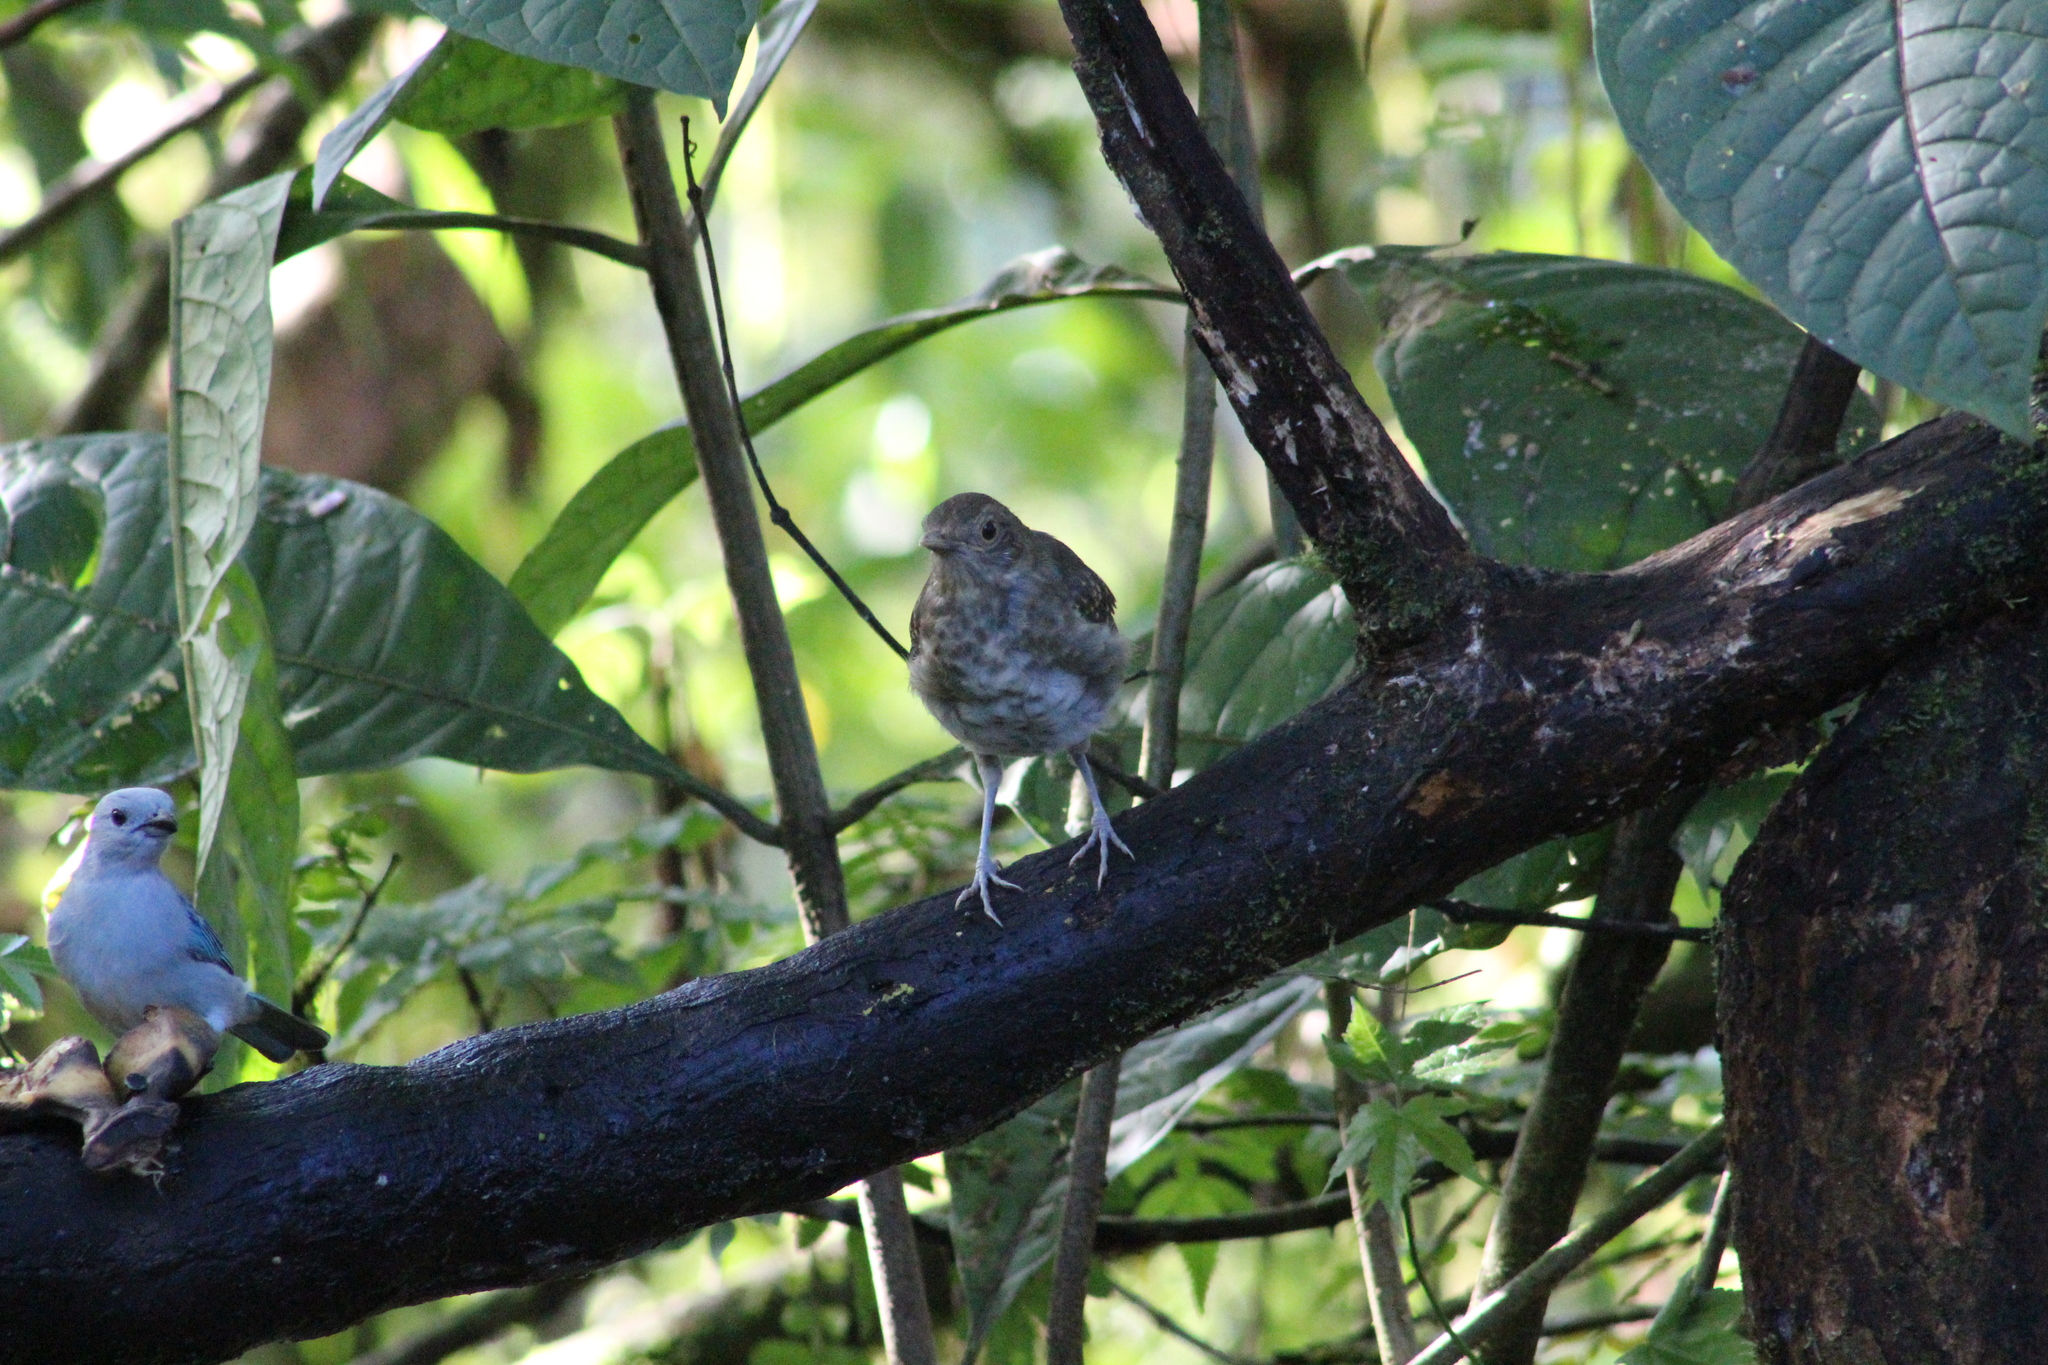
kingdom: Animalia
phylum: Chordata
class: Aves
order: Passeriformes
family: Turdidae
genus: Turdus
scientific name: Turdus maculirostris
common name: Ecuadorian thrush
